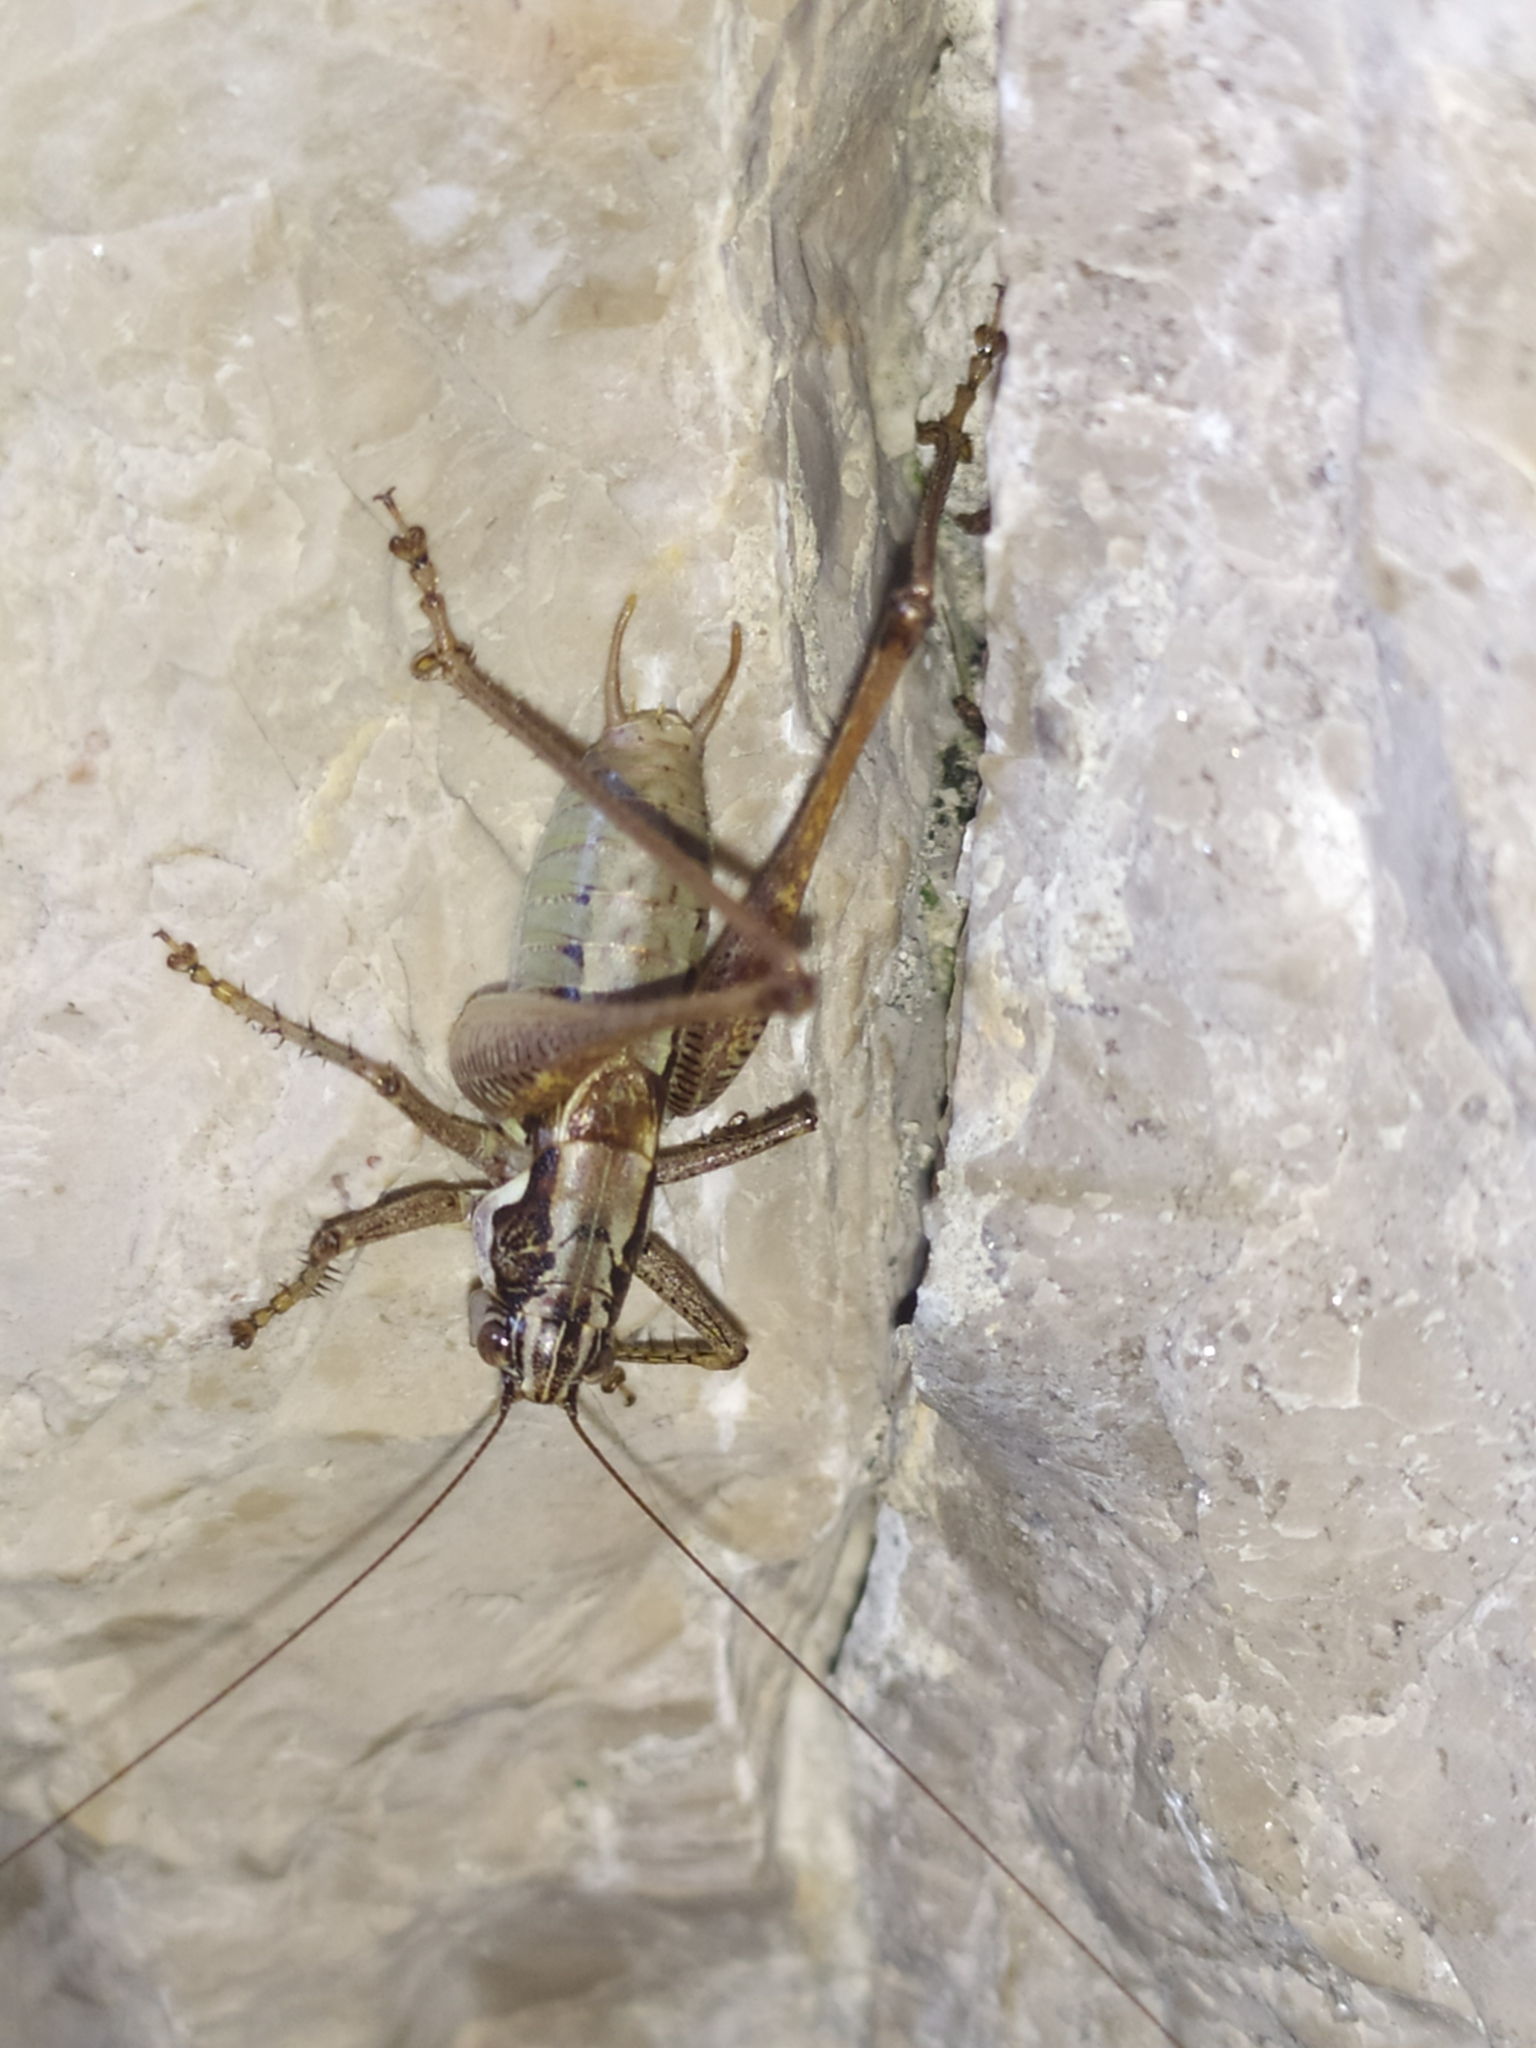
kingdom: Animalia
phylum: Arthropoda
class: Insecta
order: Orthoptera
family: Tettigoniidae
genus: Pachytrachis
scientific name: Pachytrachis striolatus
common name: Striated bush-cricket
